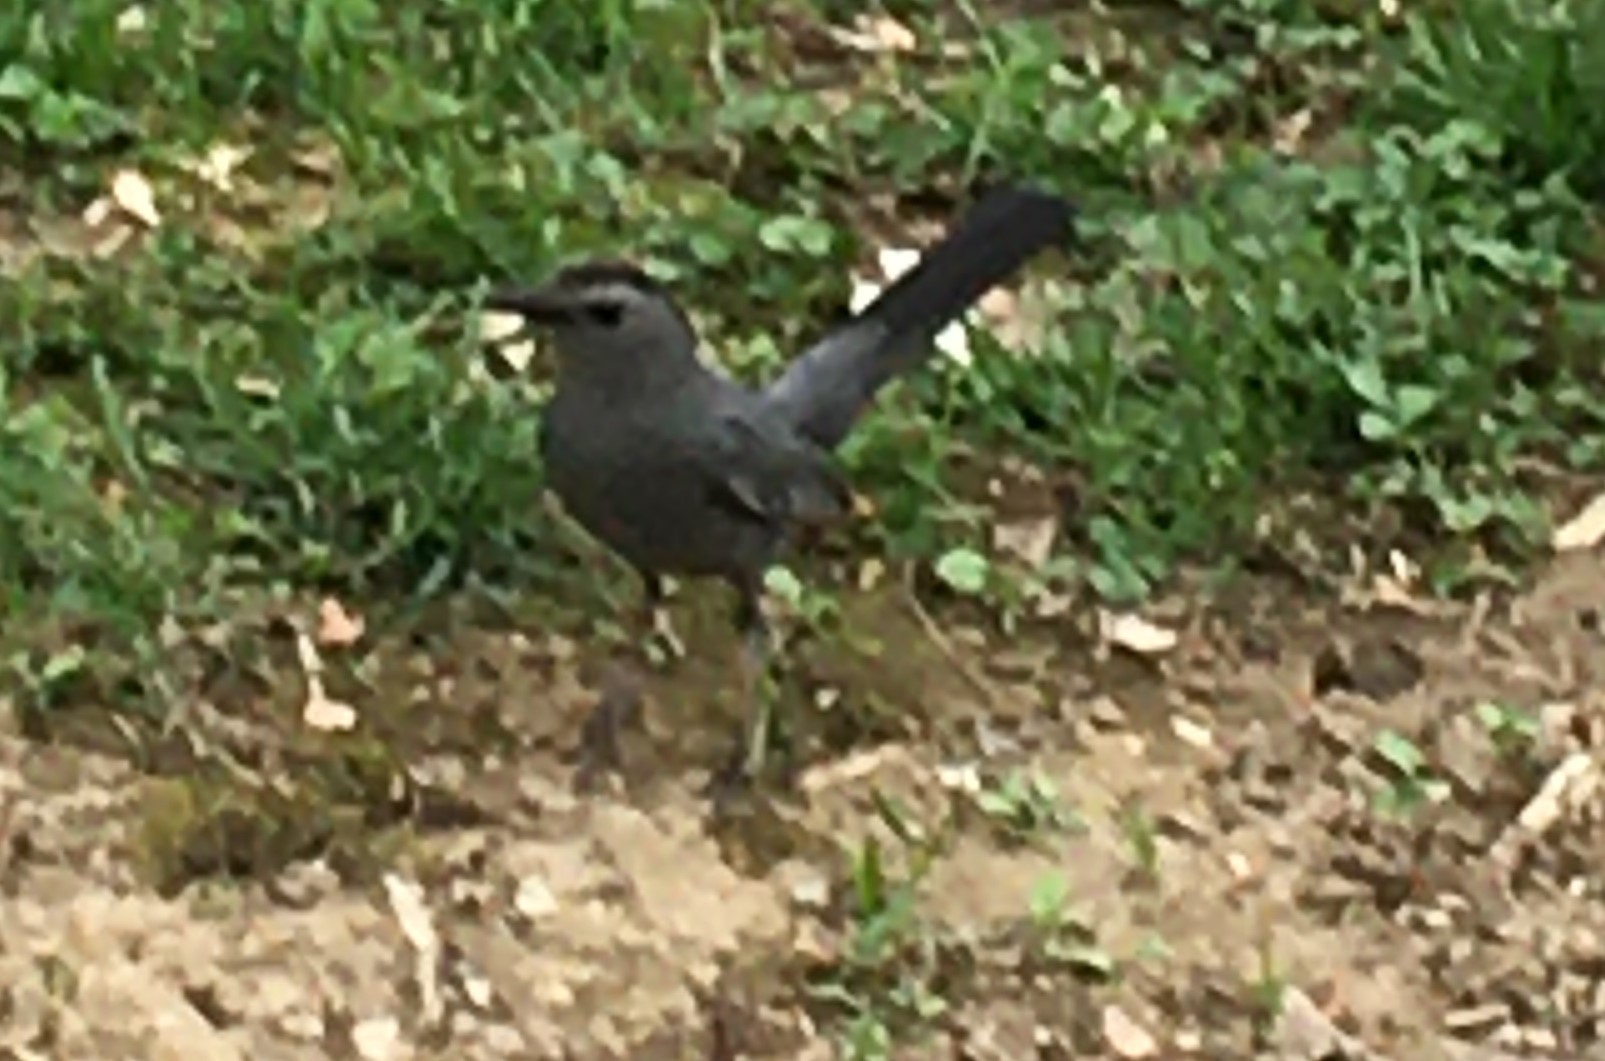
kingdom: Animalia
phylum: Chordata
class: Aves
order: Passeriformes
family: Mimidae
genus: Dumetella
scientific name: Dumetella carolinensis
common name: Gray catbird
